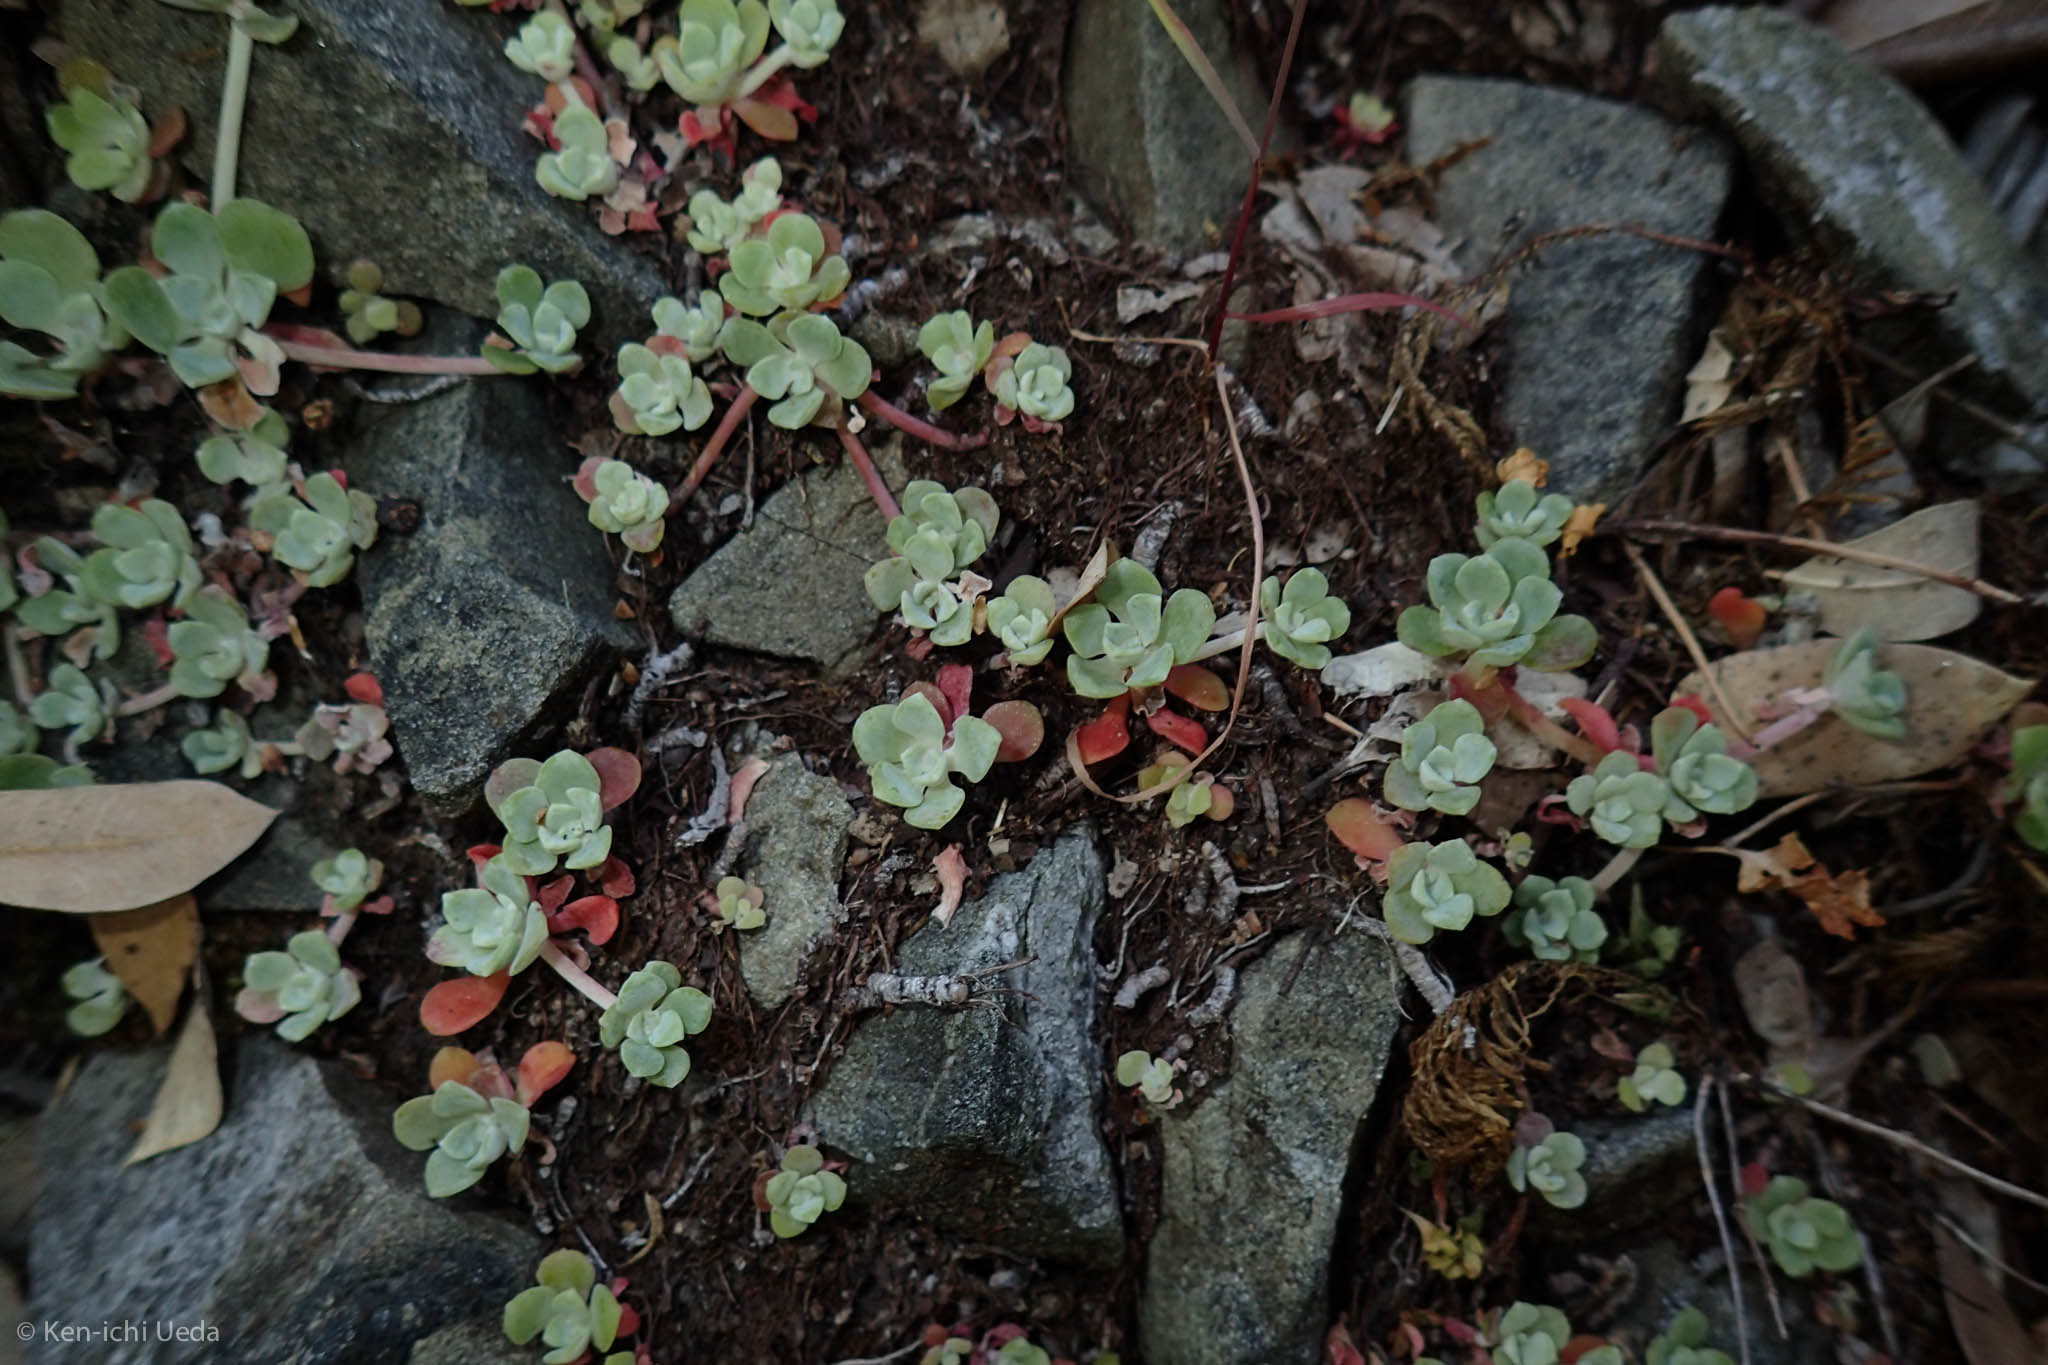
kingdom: Plantae
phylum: Tracheophyta
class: Magnoliopsida
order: Saxifragales
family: Crassulaceae
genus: Sedum
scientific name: Sedum spathulifolium
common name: Colorado stonecrop
